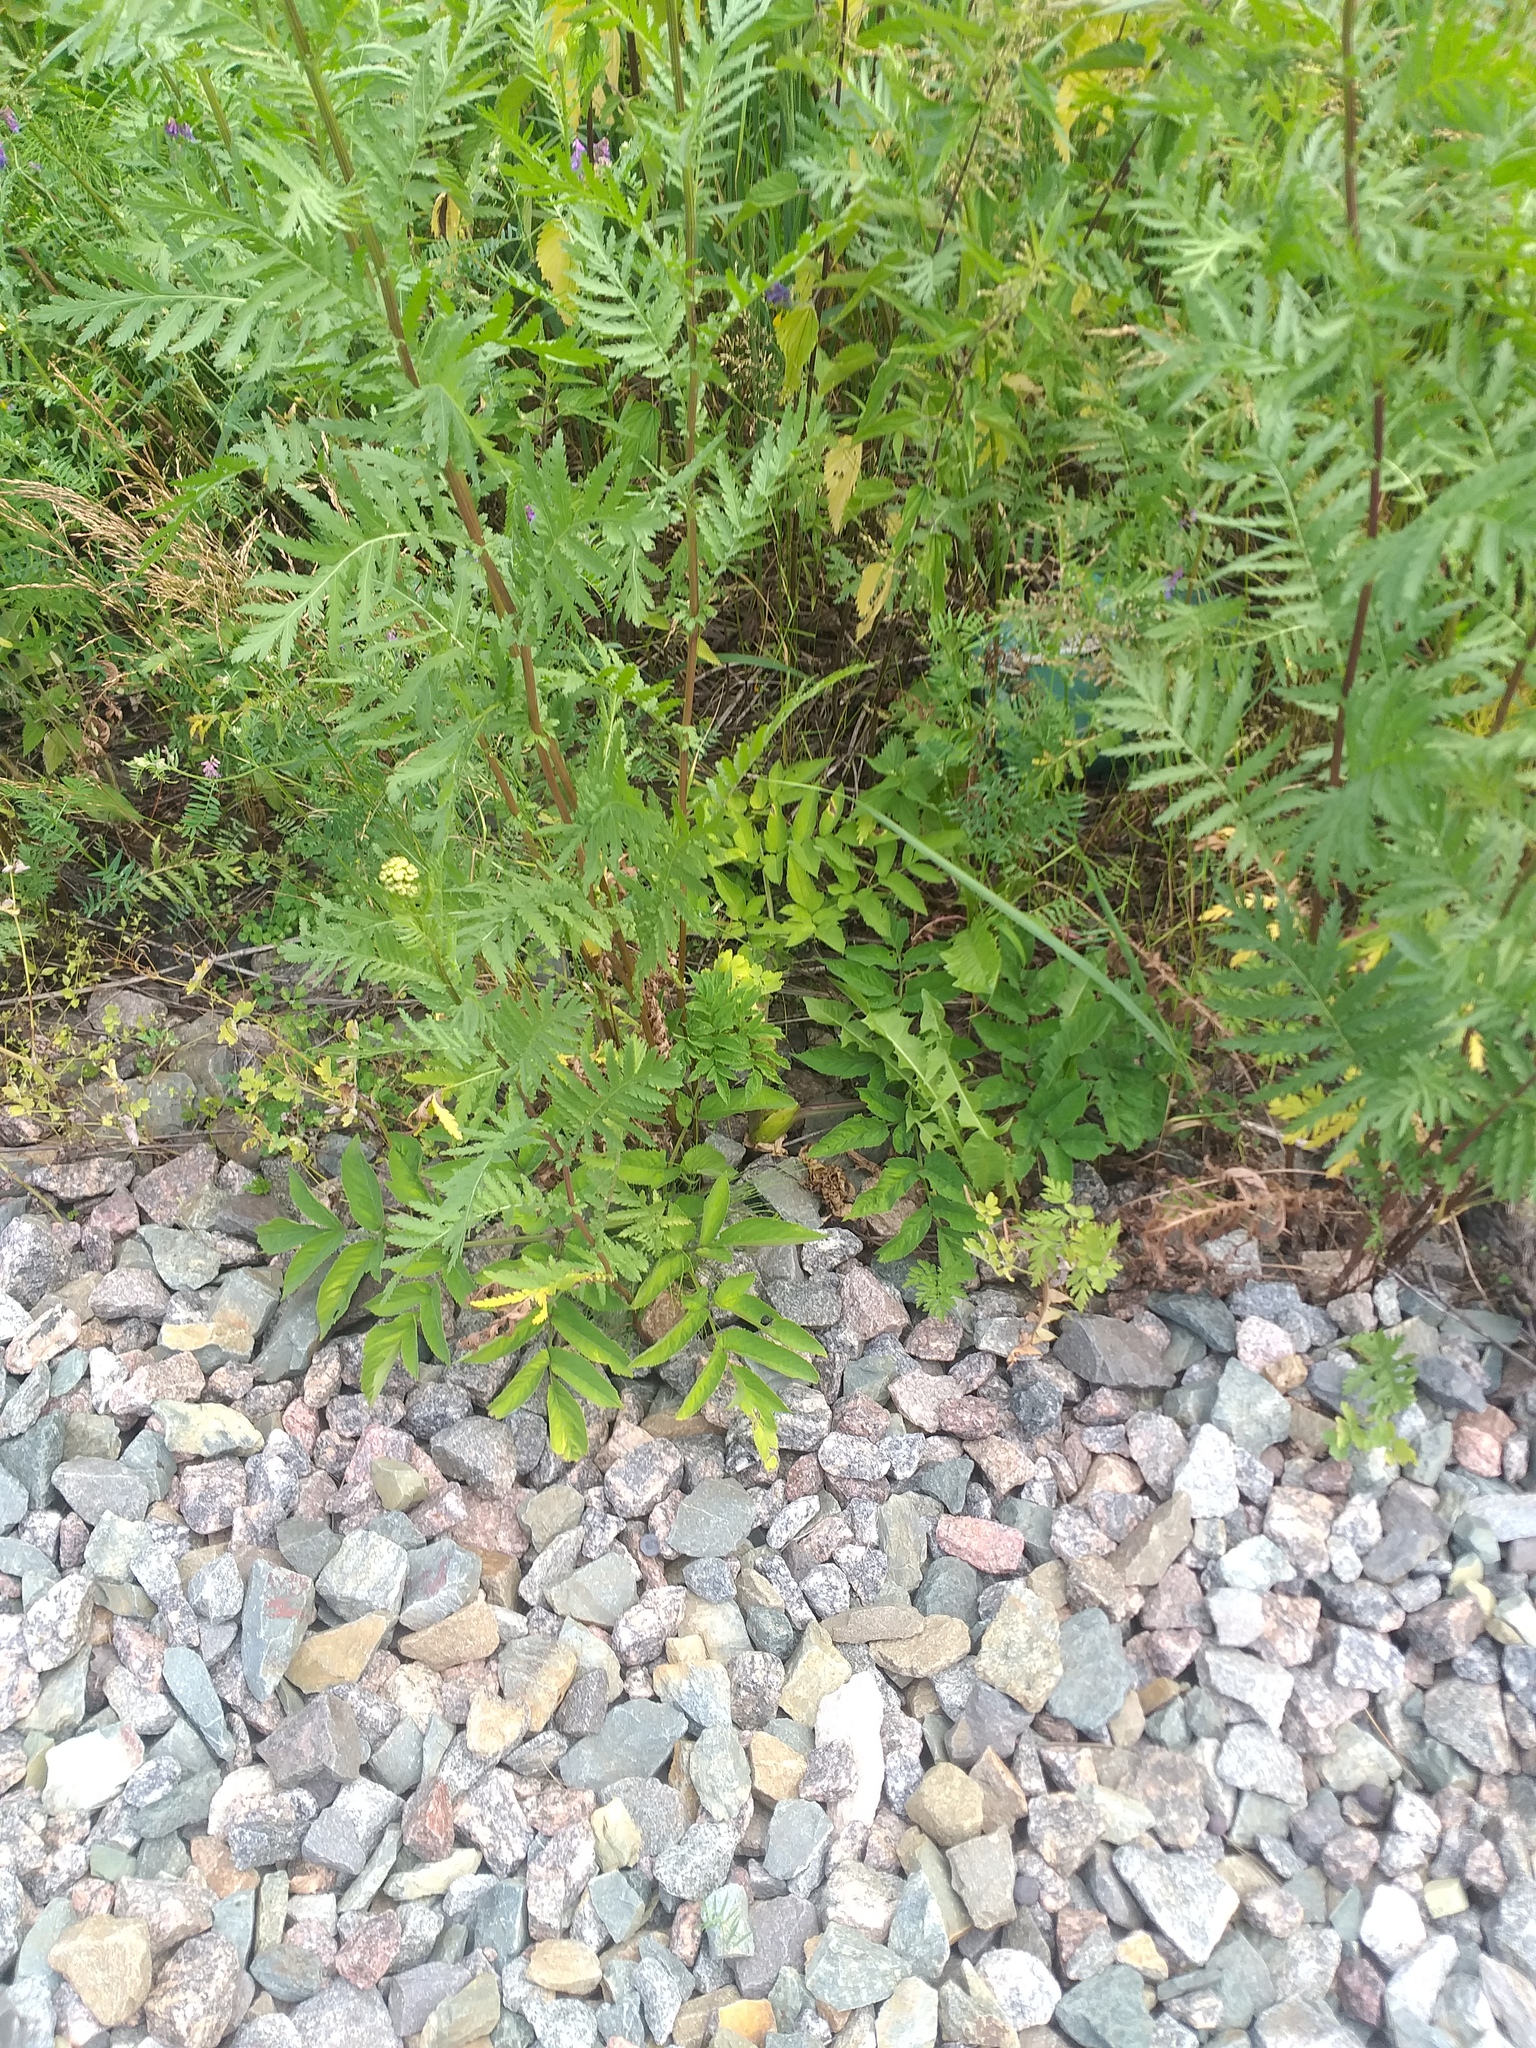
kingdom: Plantae
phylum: Tracheophyta
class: Magnoliopsida
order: Apiales
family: Apiaceae
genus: Angelica
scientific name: Angelica sylvestris
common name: Wild angelica
